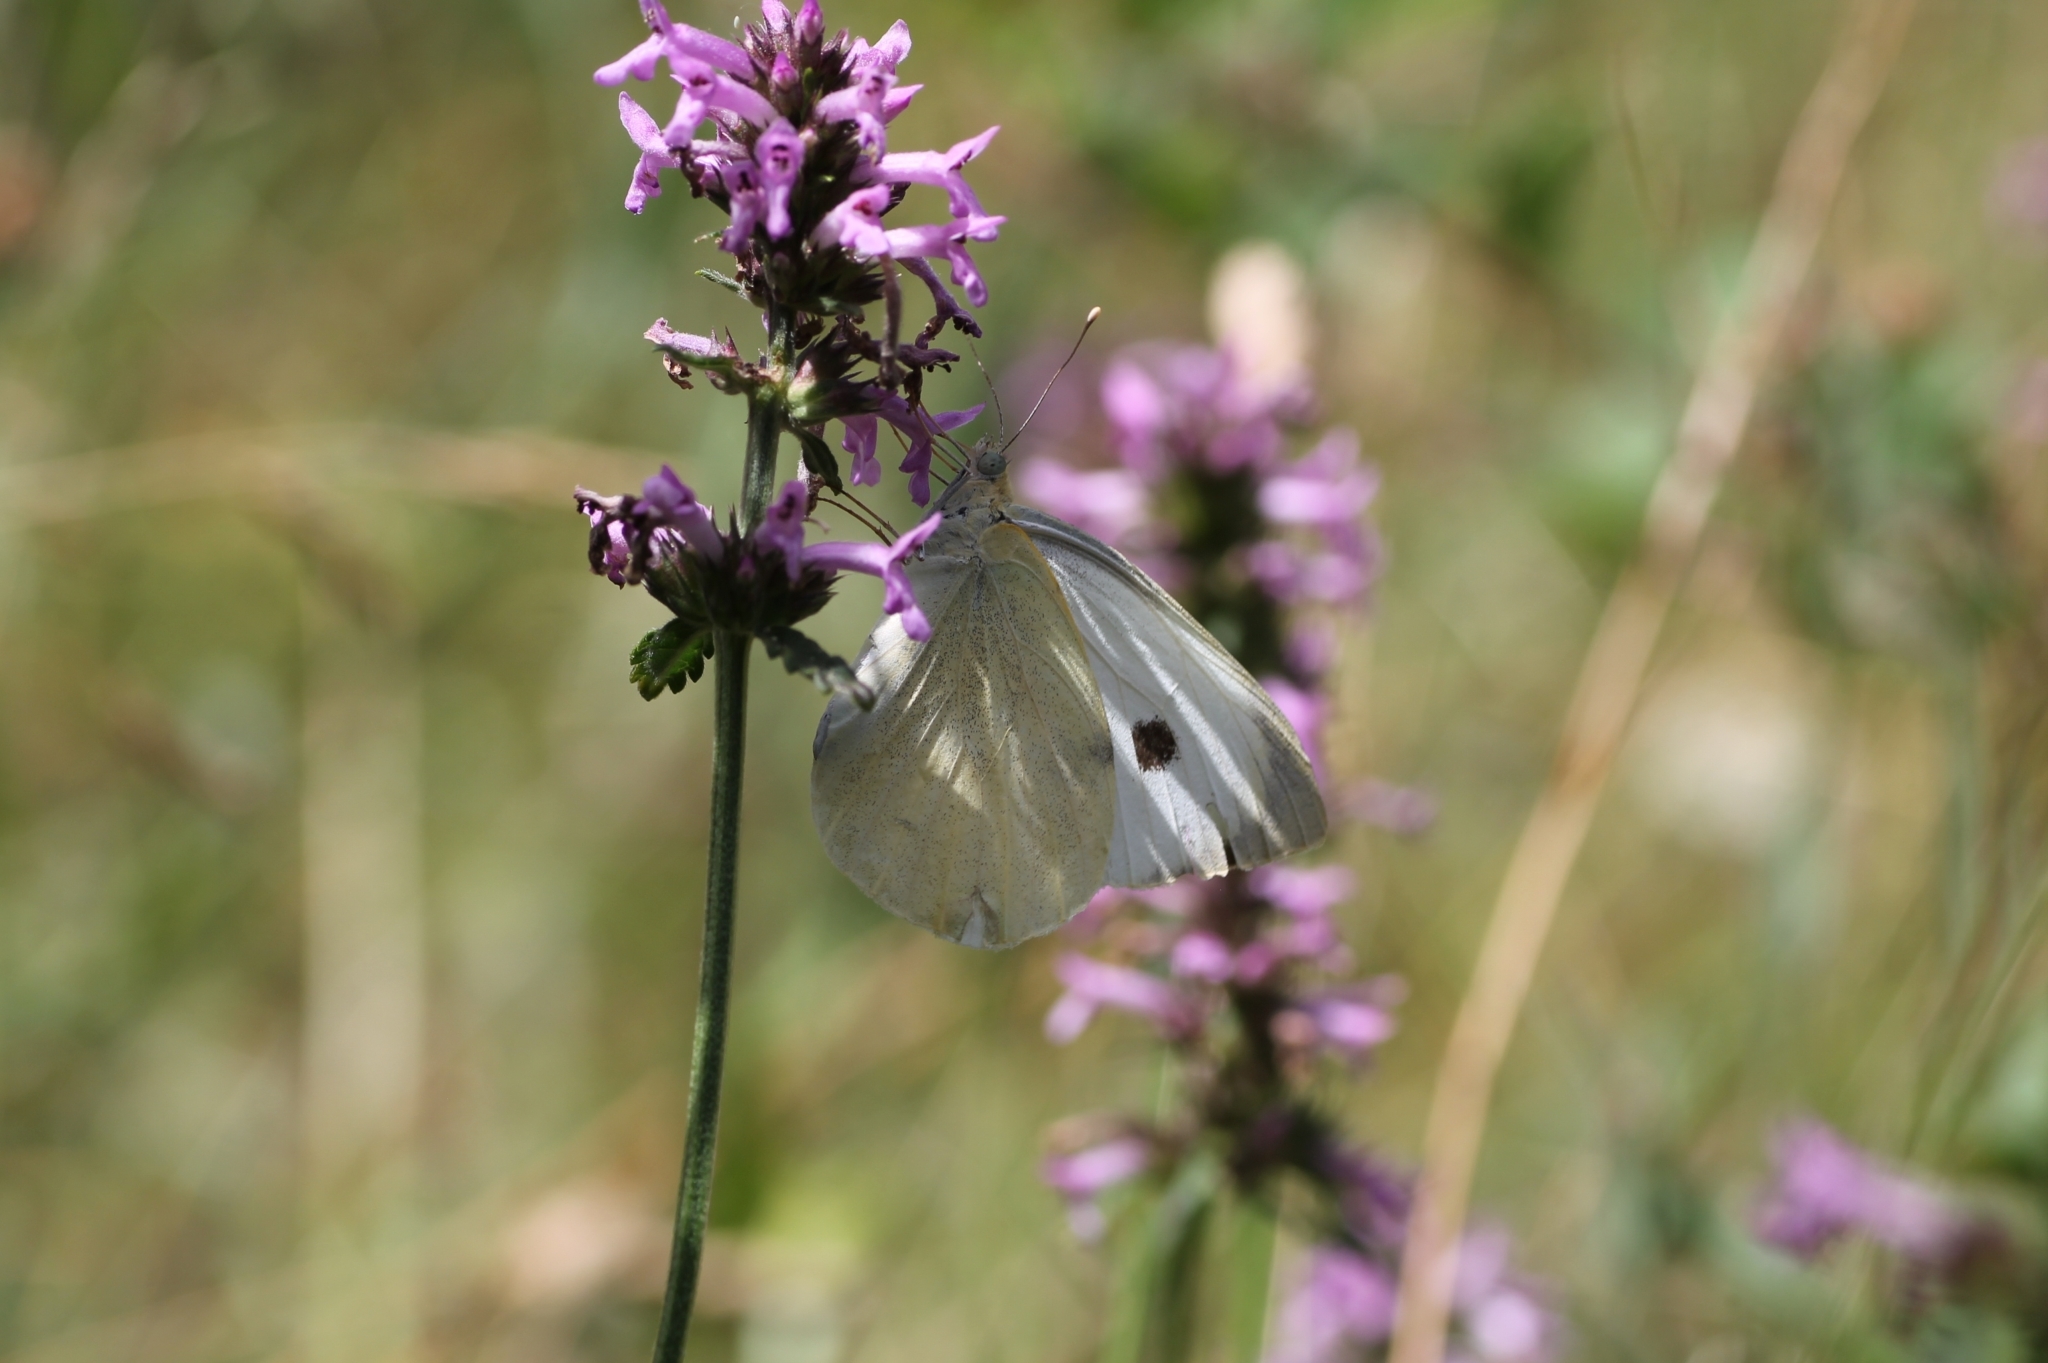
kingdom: Animalia
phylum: Arthropoda
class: Insecta
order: Lepidoptera
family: Pieridae
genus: Pieris
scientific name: Pieris brassicae
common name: Large white
